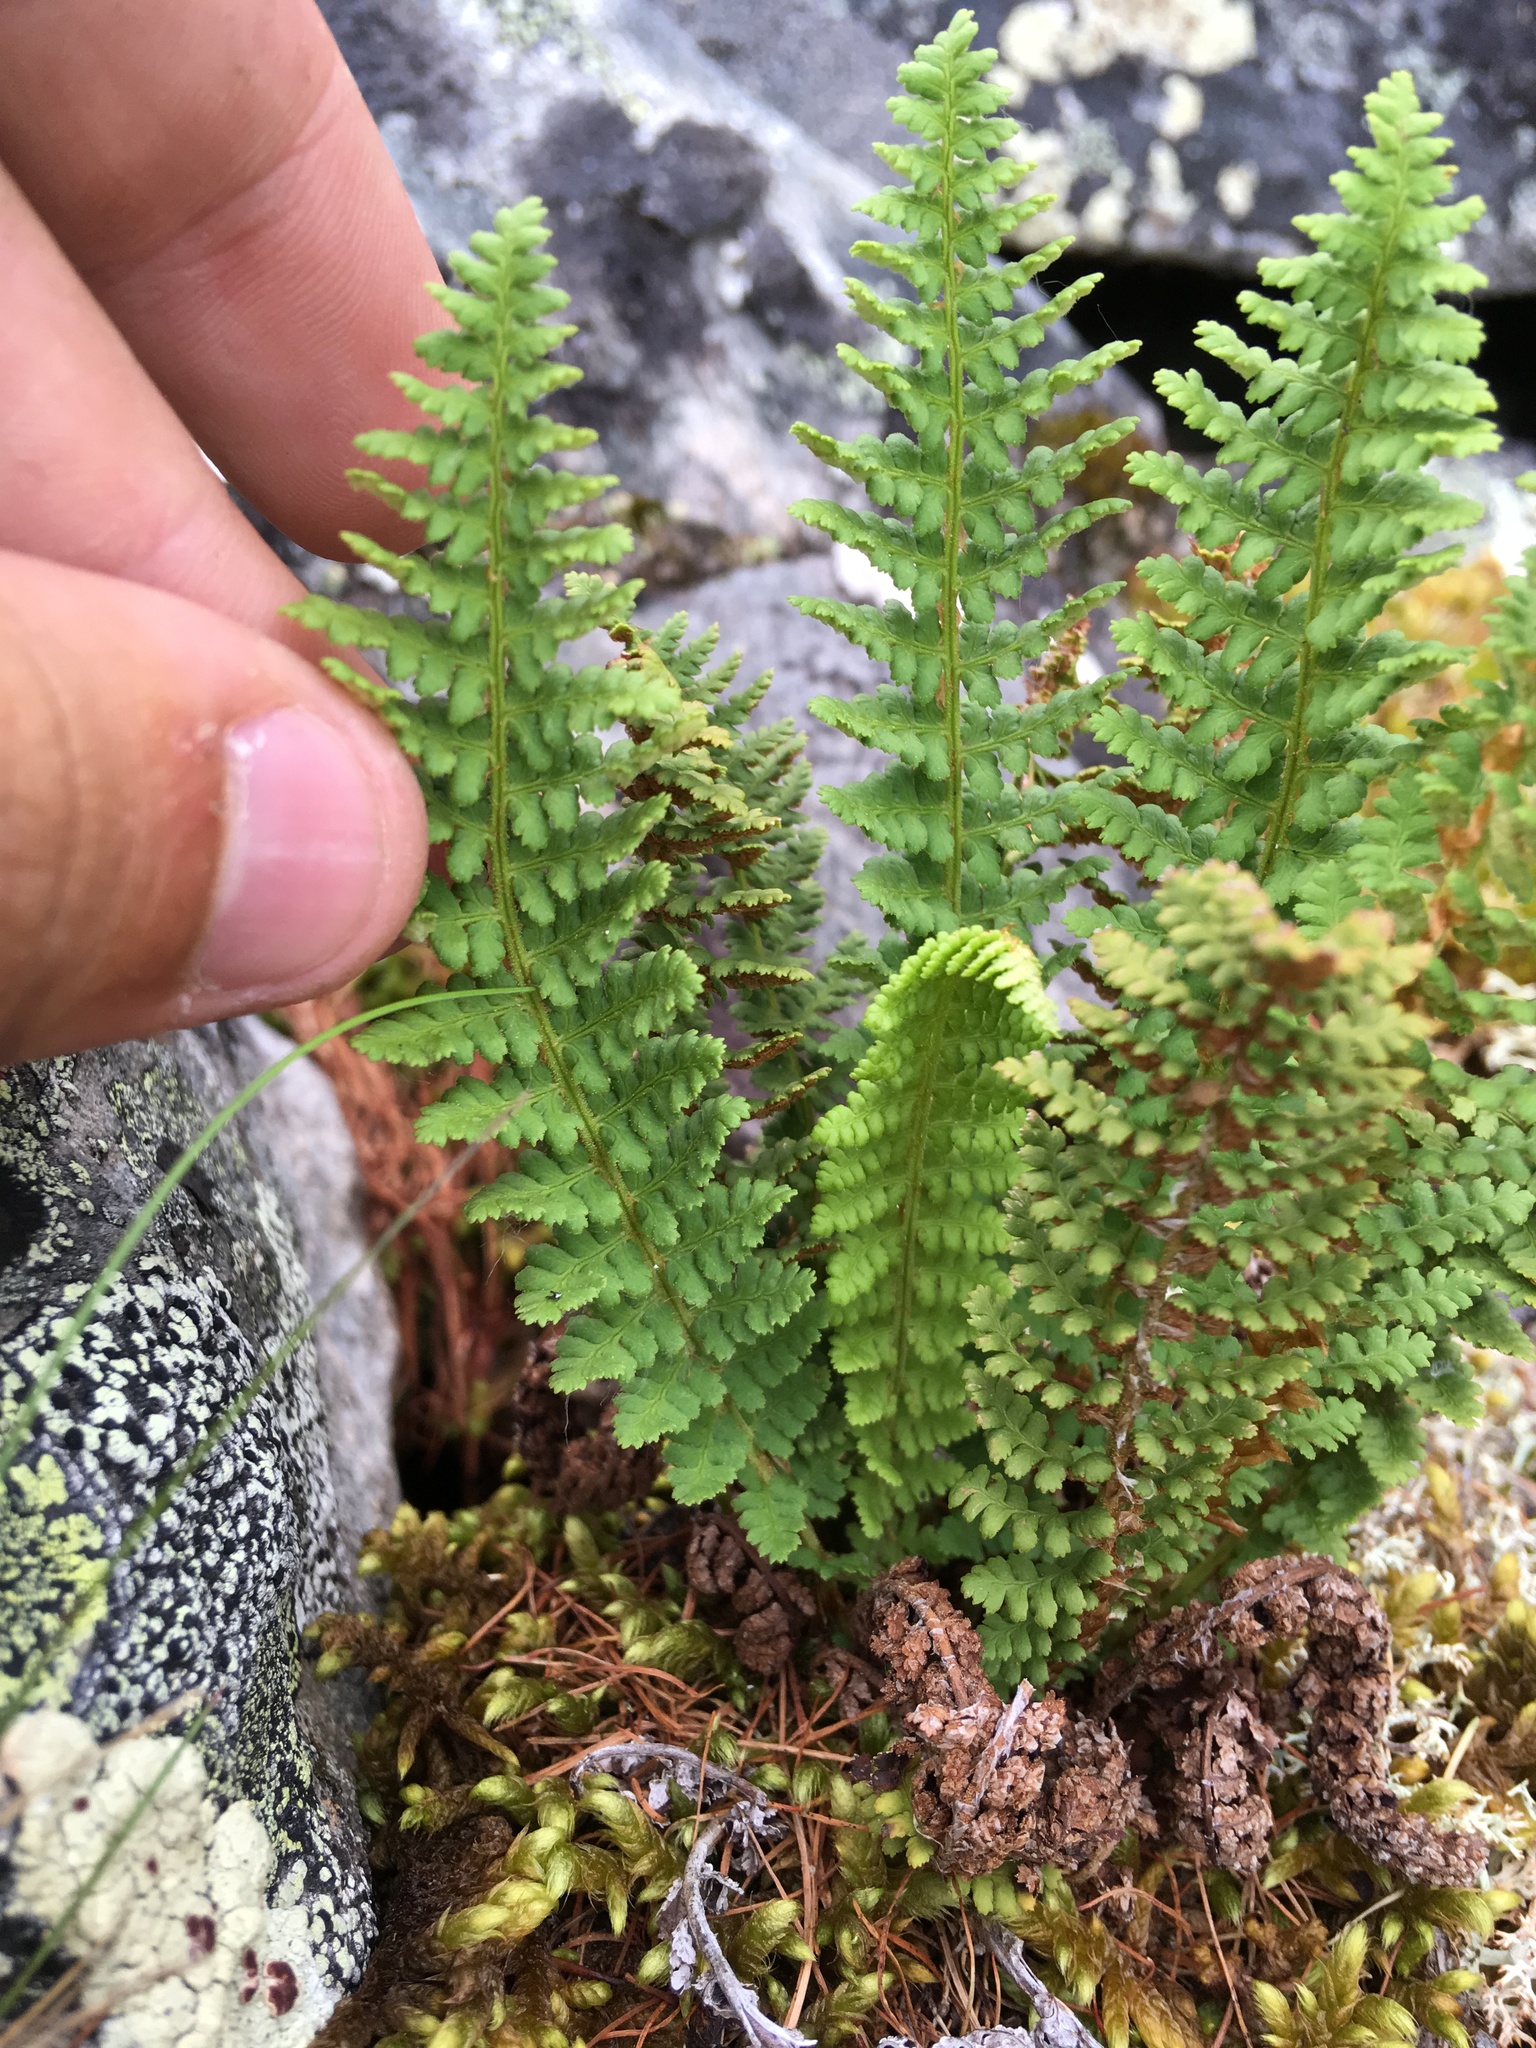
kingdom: Plantae
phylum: Tracheophyta
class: Polypodiopsida
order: Polypodiales
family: Dryopteridaceae
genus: Dryopteris
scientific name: Dryopteris fragrans
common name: Fragrant wood fern
